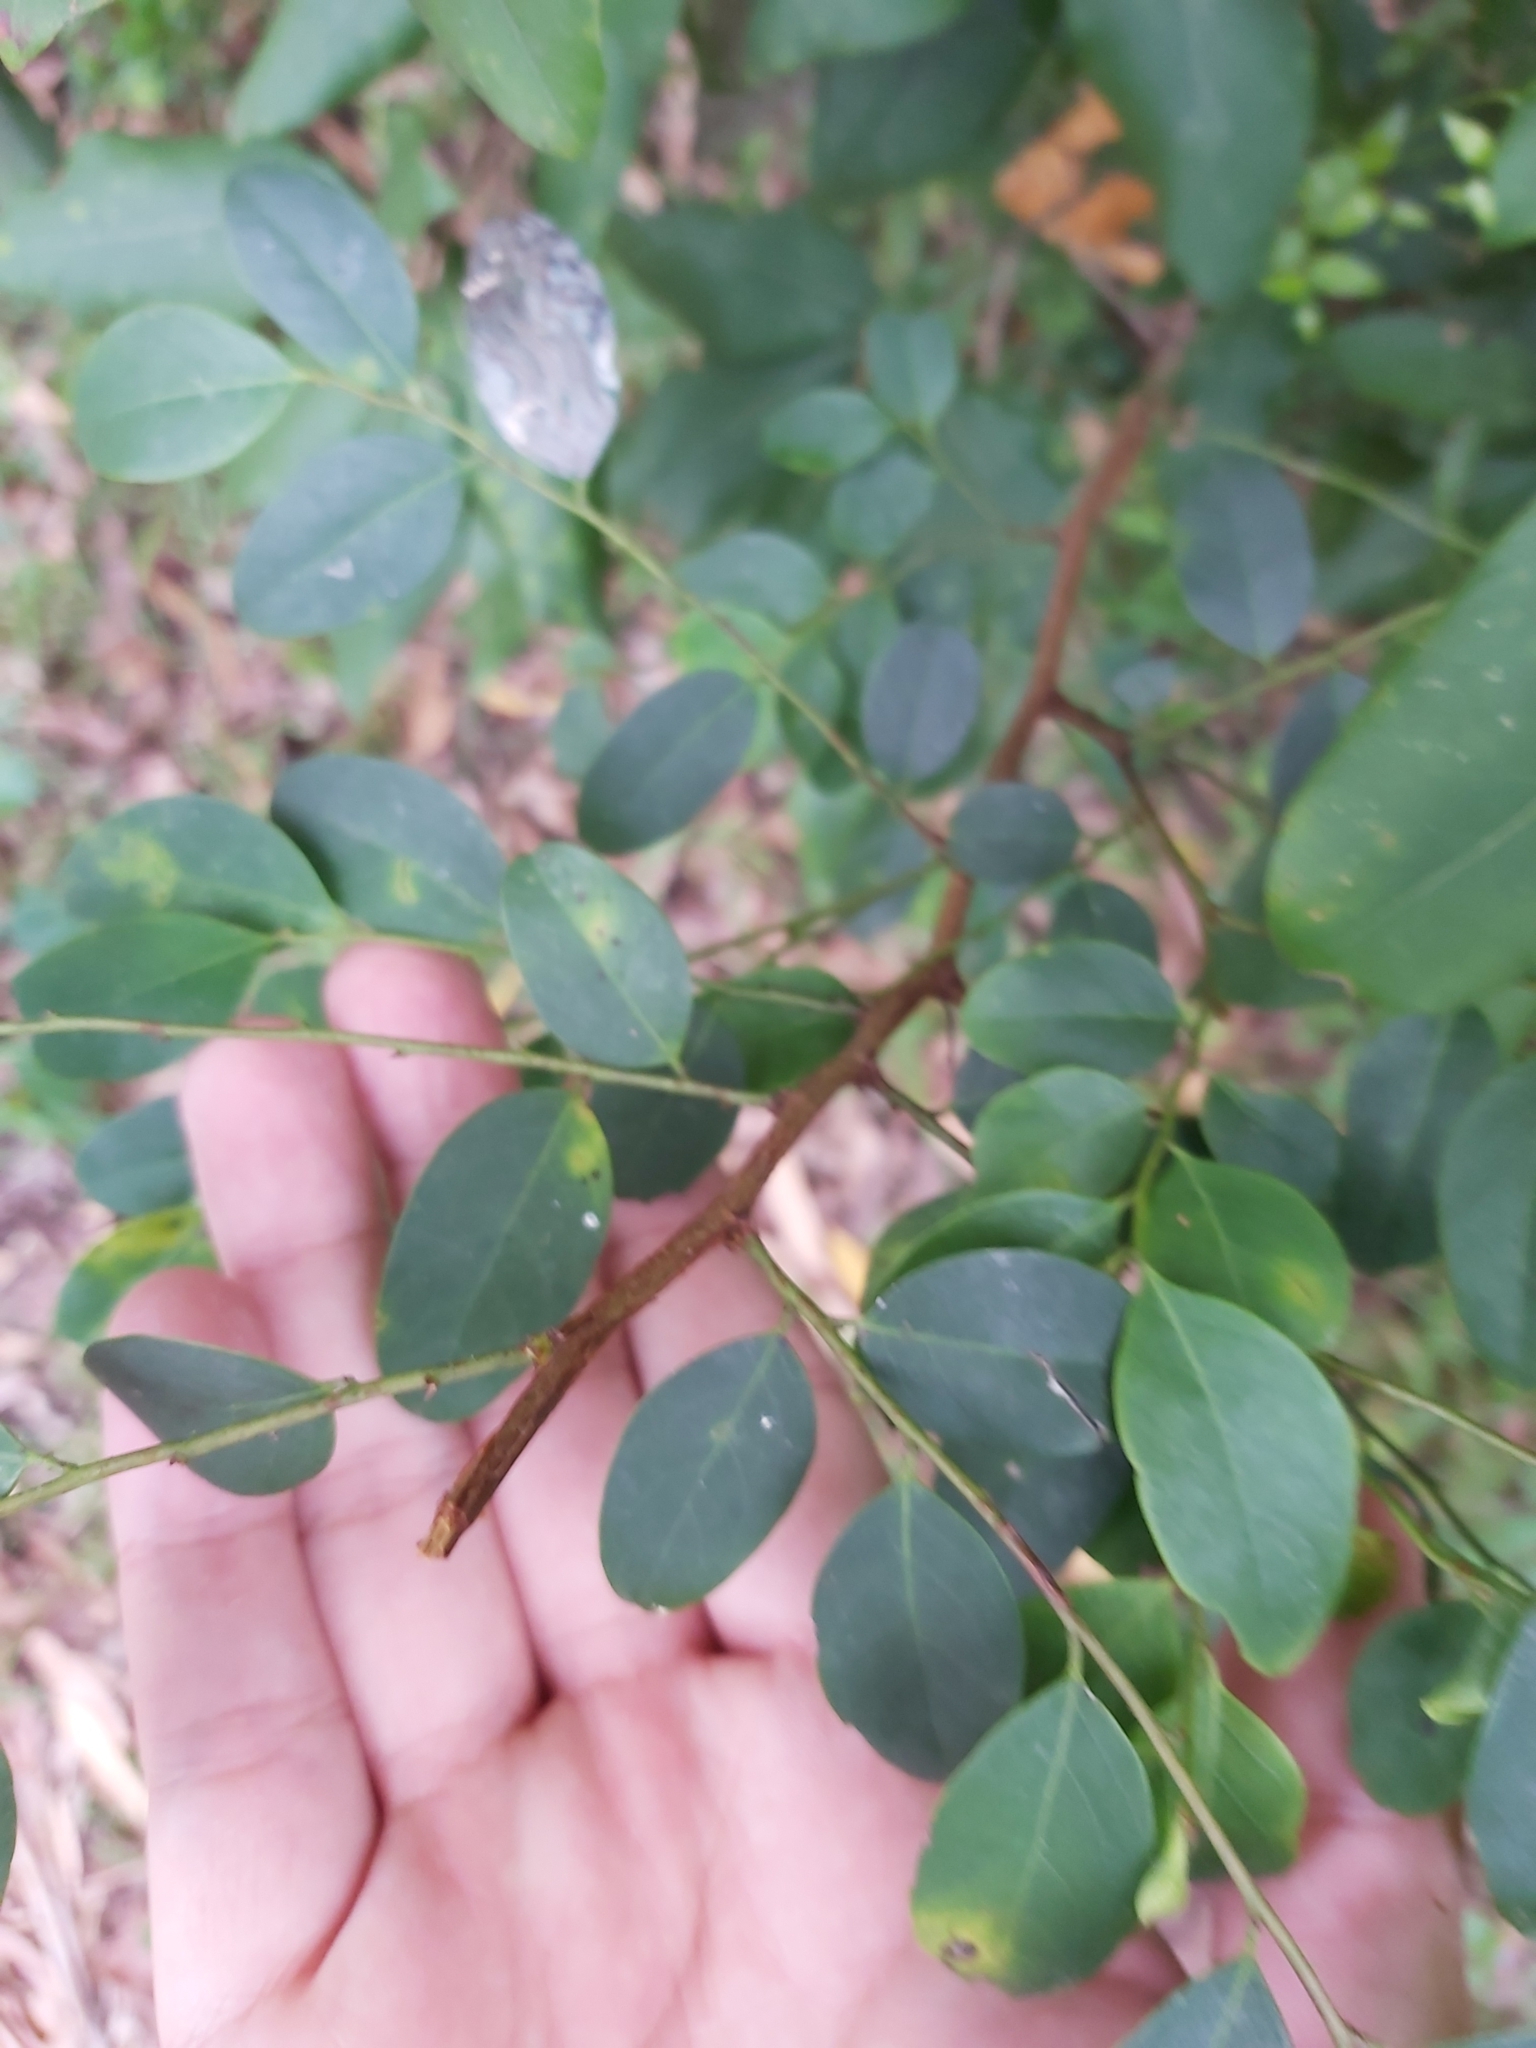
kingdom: Plantae
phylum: Tracheophyta
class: Magnoliopsida
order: Malpighiales
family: Phyllanthaceae
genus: Breynia
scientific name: Breynia oblongifolia
